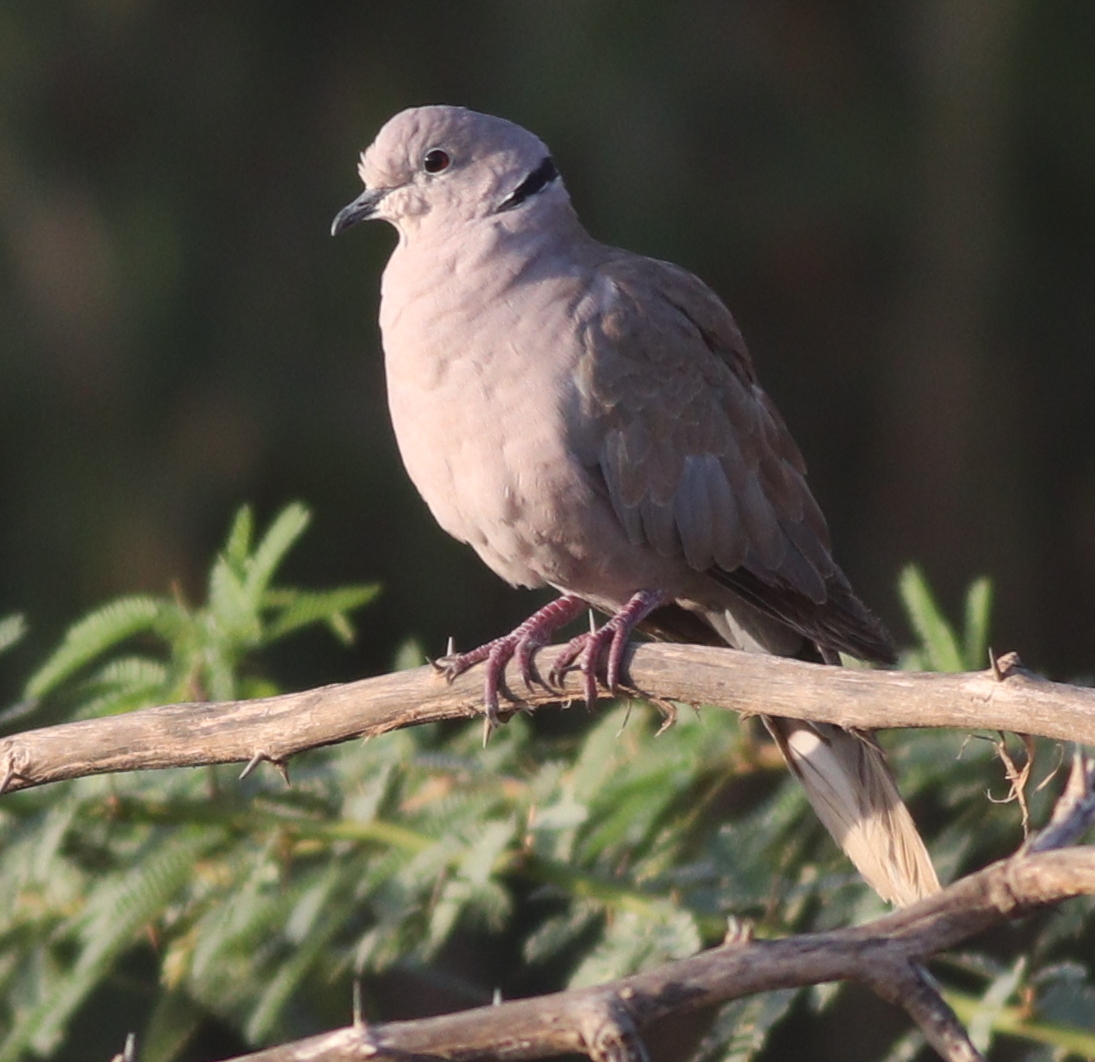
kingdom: Animalia
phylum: Chordata
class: Aves
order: Columbiformes
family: Columbidae
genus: Streptopelia
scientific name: Streptopelia decaocto
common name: Eurasian collared dove
